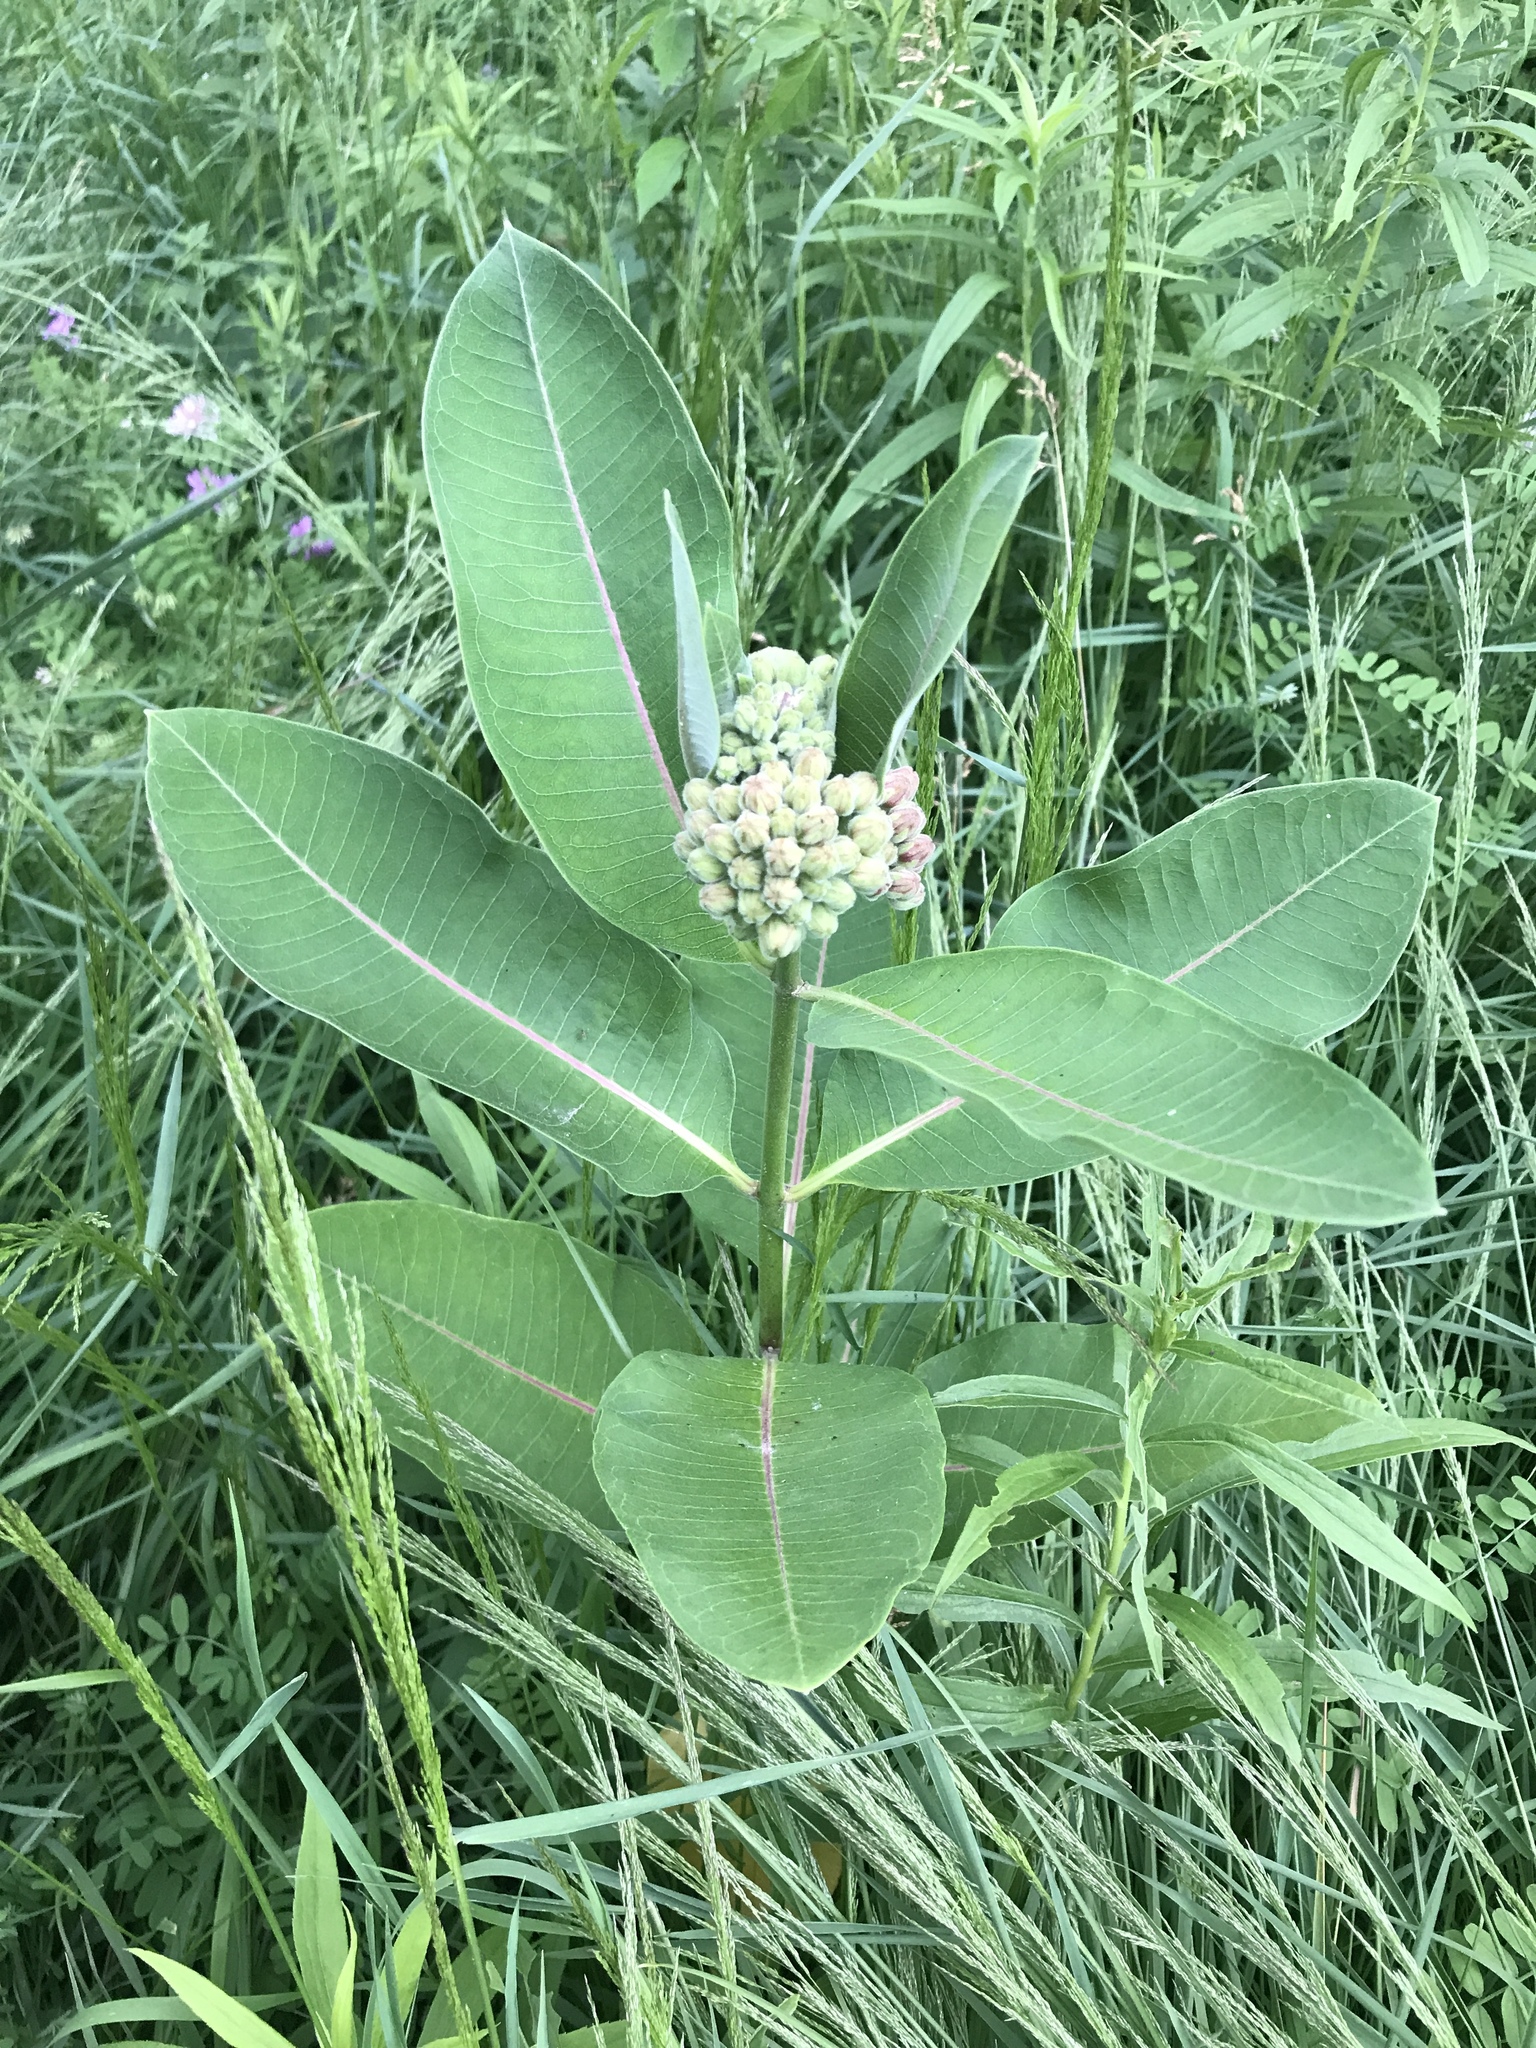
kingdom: Plantae
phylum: Tracheophyta
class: Magnoliopsida
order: Gentianales
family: Apocynaceae
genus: Asclepias
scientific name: Asclepias syriaca
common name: Common milkweed
